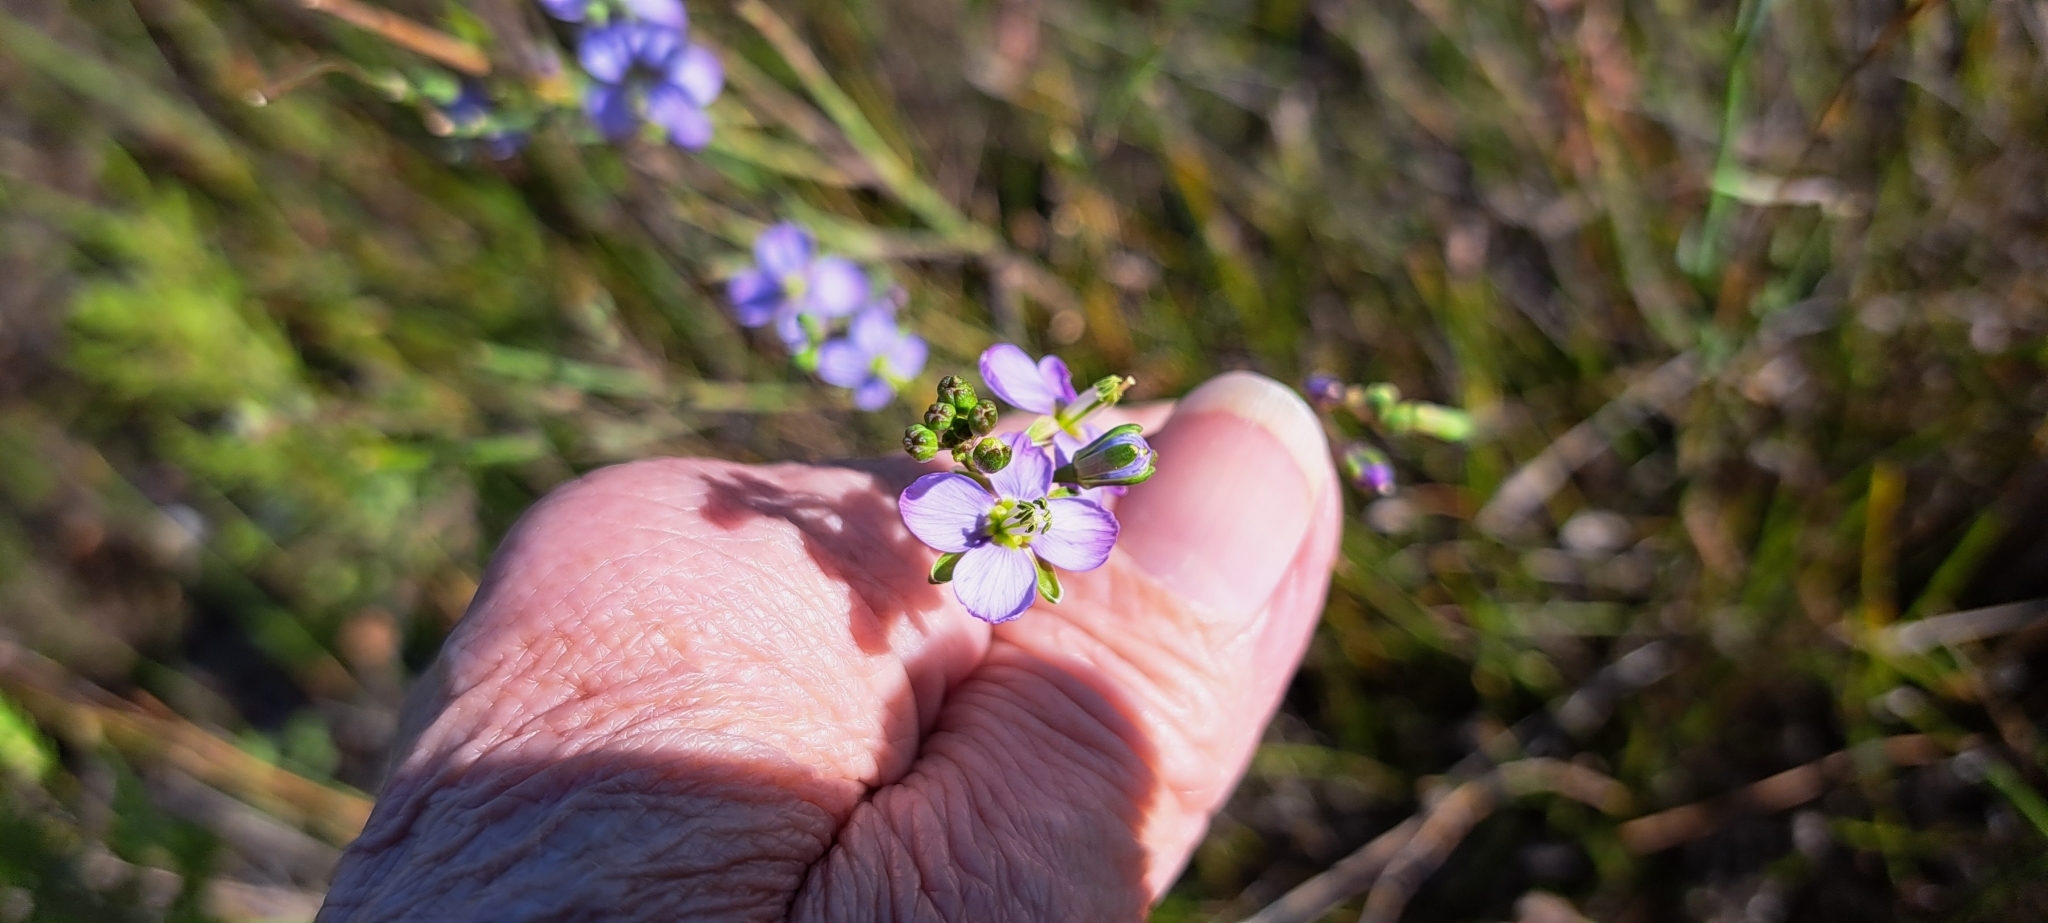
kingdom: Plantae
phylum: Tracheophyta
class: Magnoliopsida
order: Brassicales
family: Brassicaceae
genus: Heliophila
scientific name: Heliophila linearis
